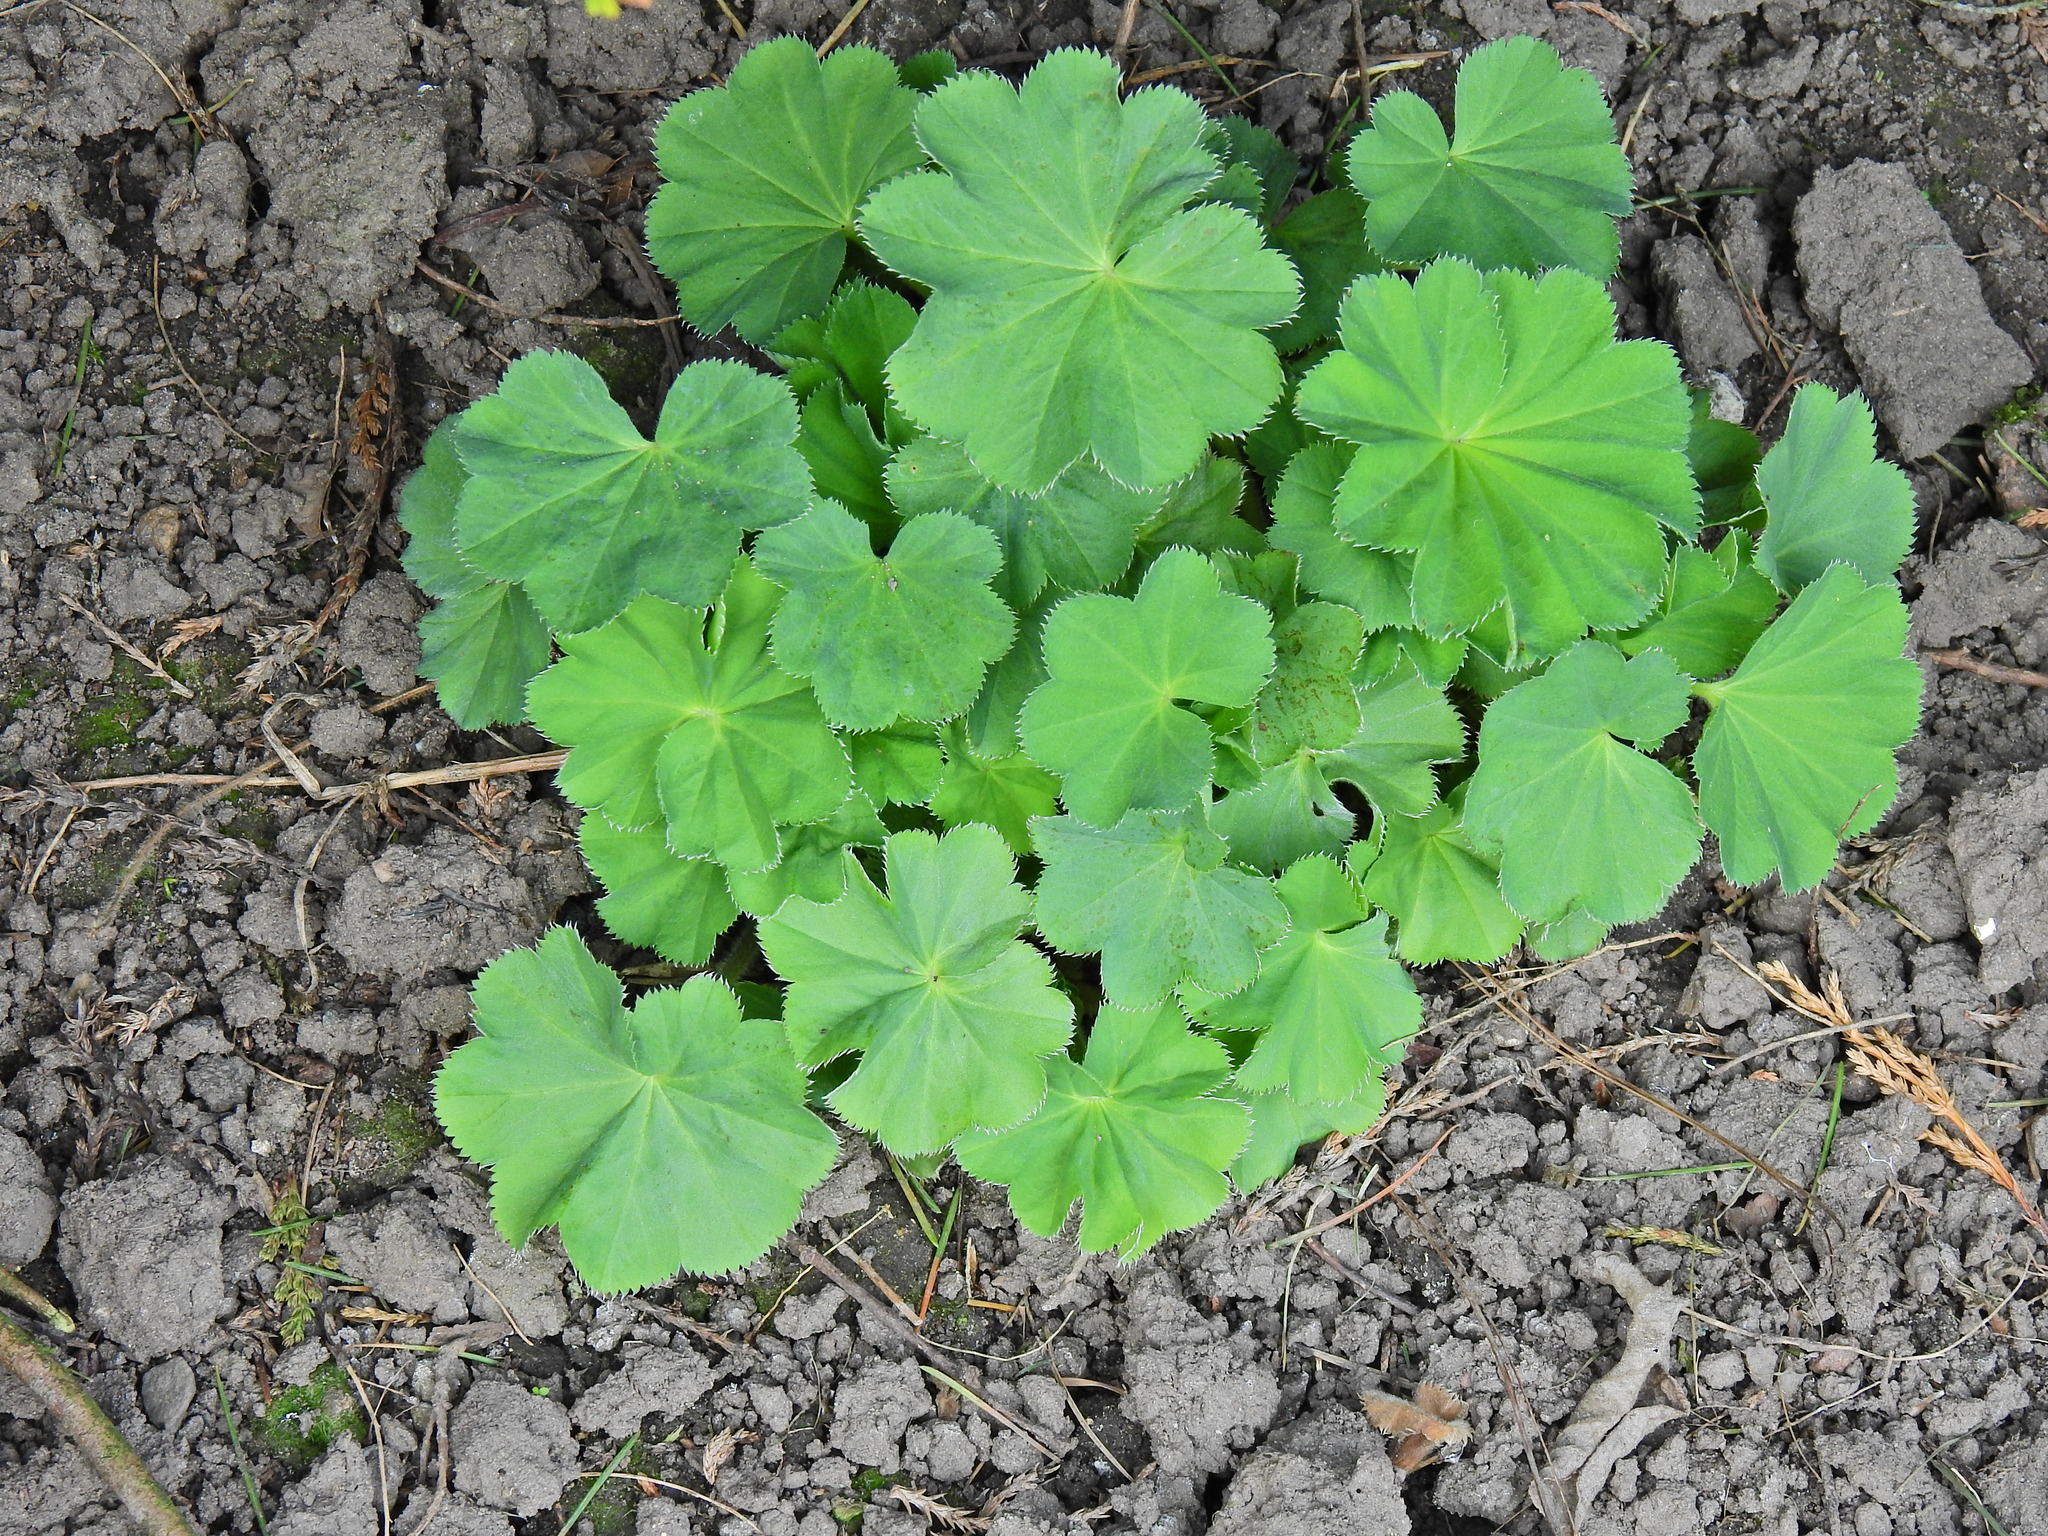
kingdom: Plantae
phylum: Tracheophyta
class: Magnoliopsida
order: Rosales
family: Rosaceae
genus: Alchemilla
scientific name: Alchemilla mollis
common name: Lady's-mantle
